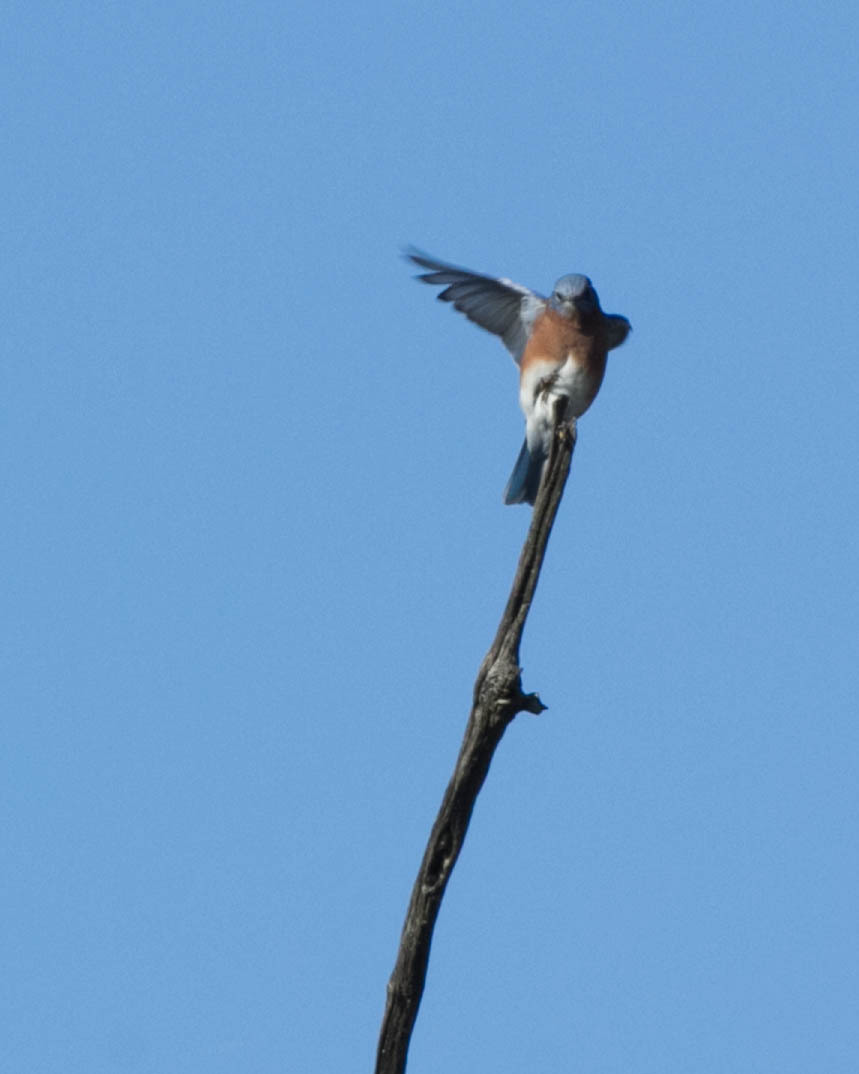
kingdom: Animalia
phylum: Chordata
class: Aves
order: Passeriformes
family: Turdidae
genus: Sialia
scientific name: Sialia sialis
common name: Eastern bluebird
